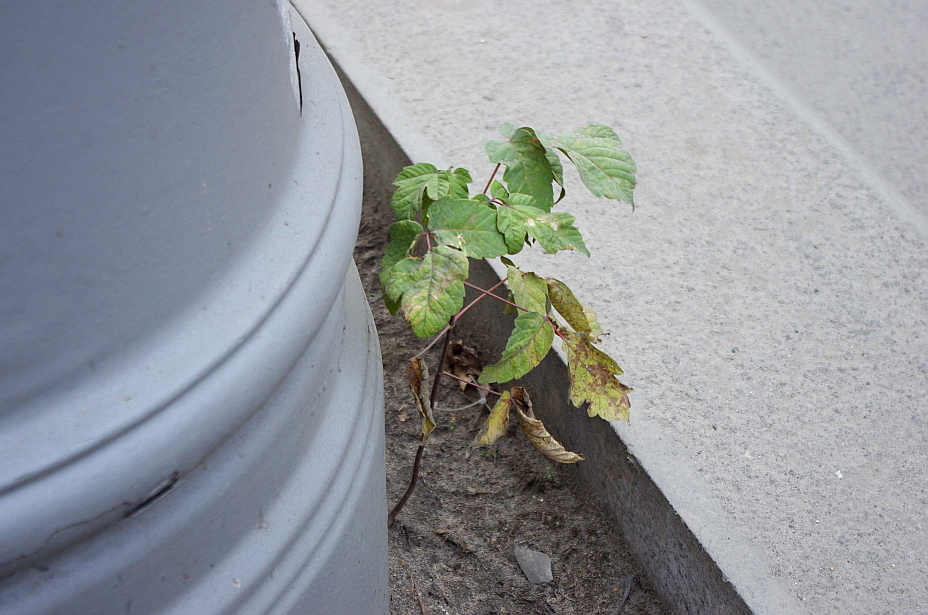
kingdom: Plantae
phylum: Tracheophyta
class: Magnoliopsida
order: Sapindales
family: Sapindaceae
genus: Acer
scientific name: Acer negundo
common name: Ashleaf maple
